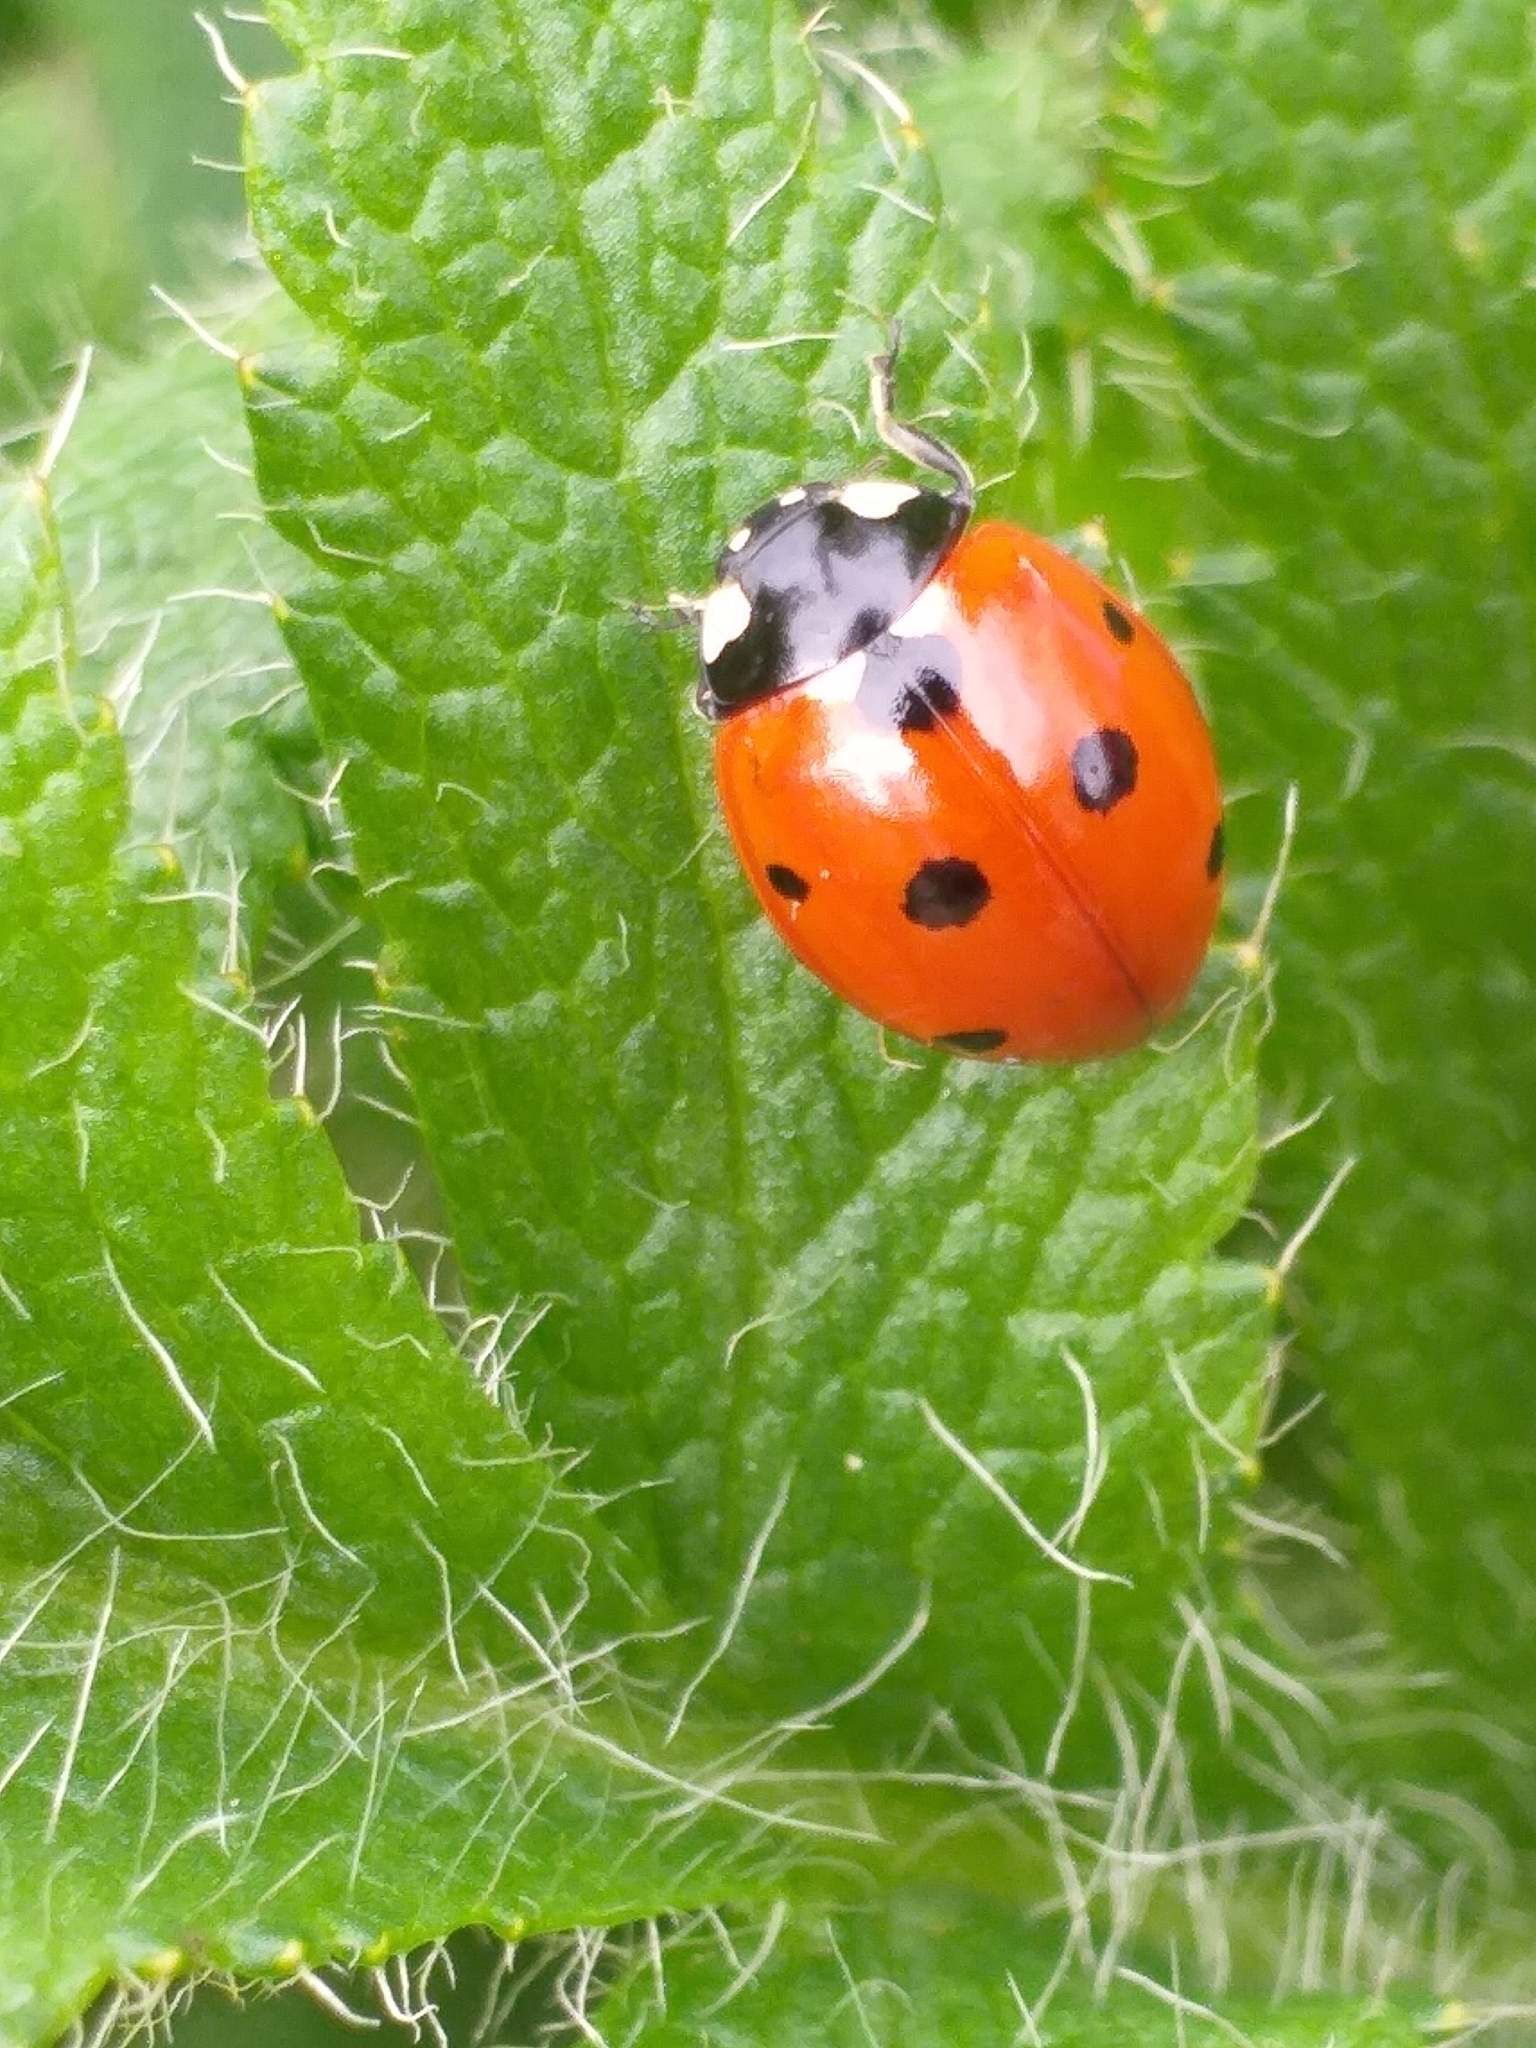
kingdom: Animalia
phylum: Arthropoda
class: Insecta
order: Coleoptera
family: Coccinellidae
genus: Coccinella
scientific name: Coccinella septempunctata
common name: Sevenspotted lady beetle
